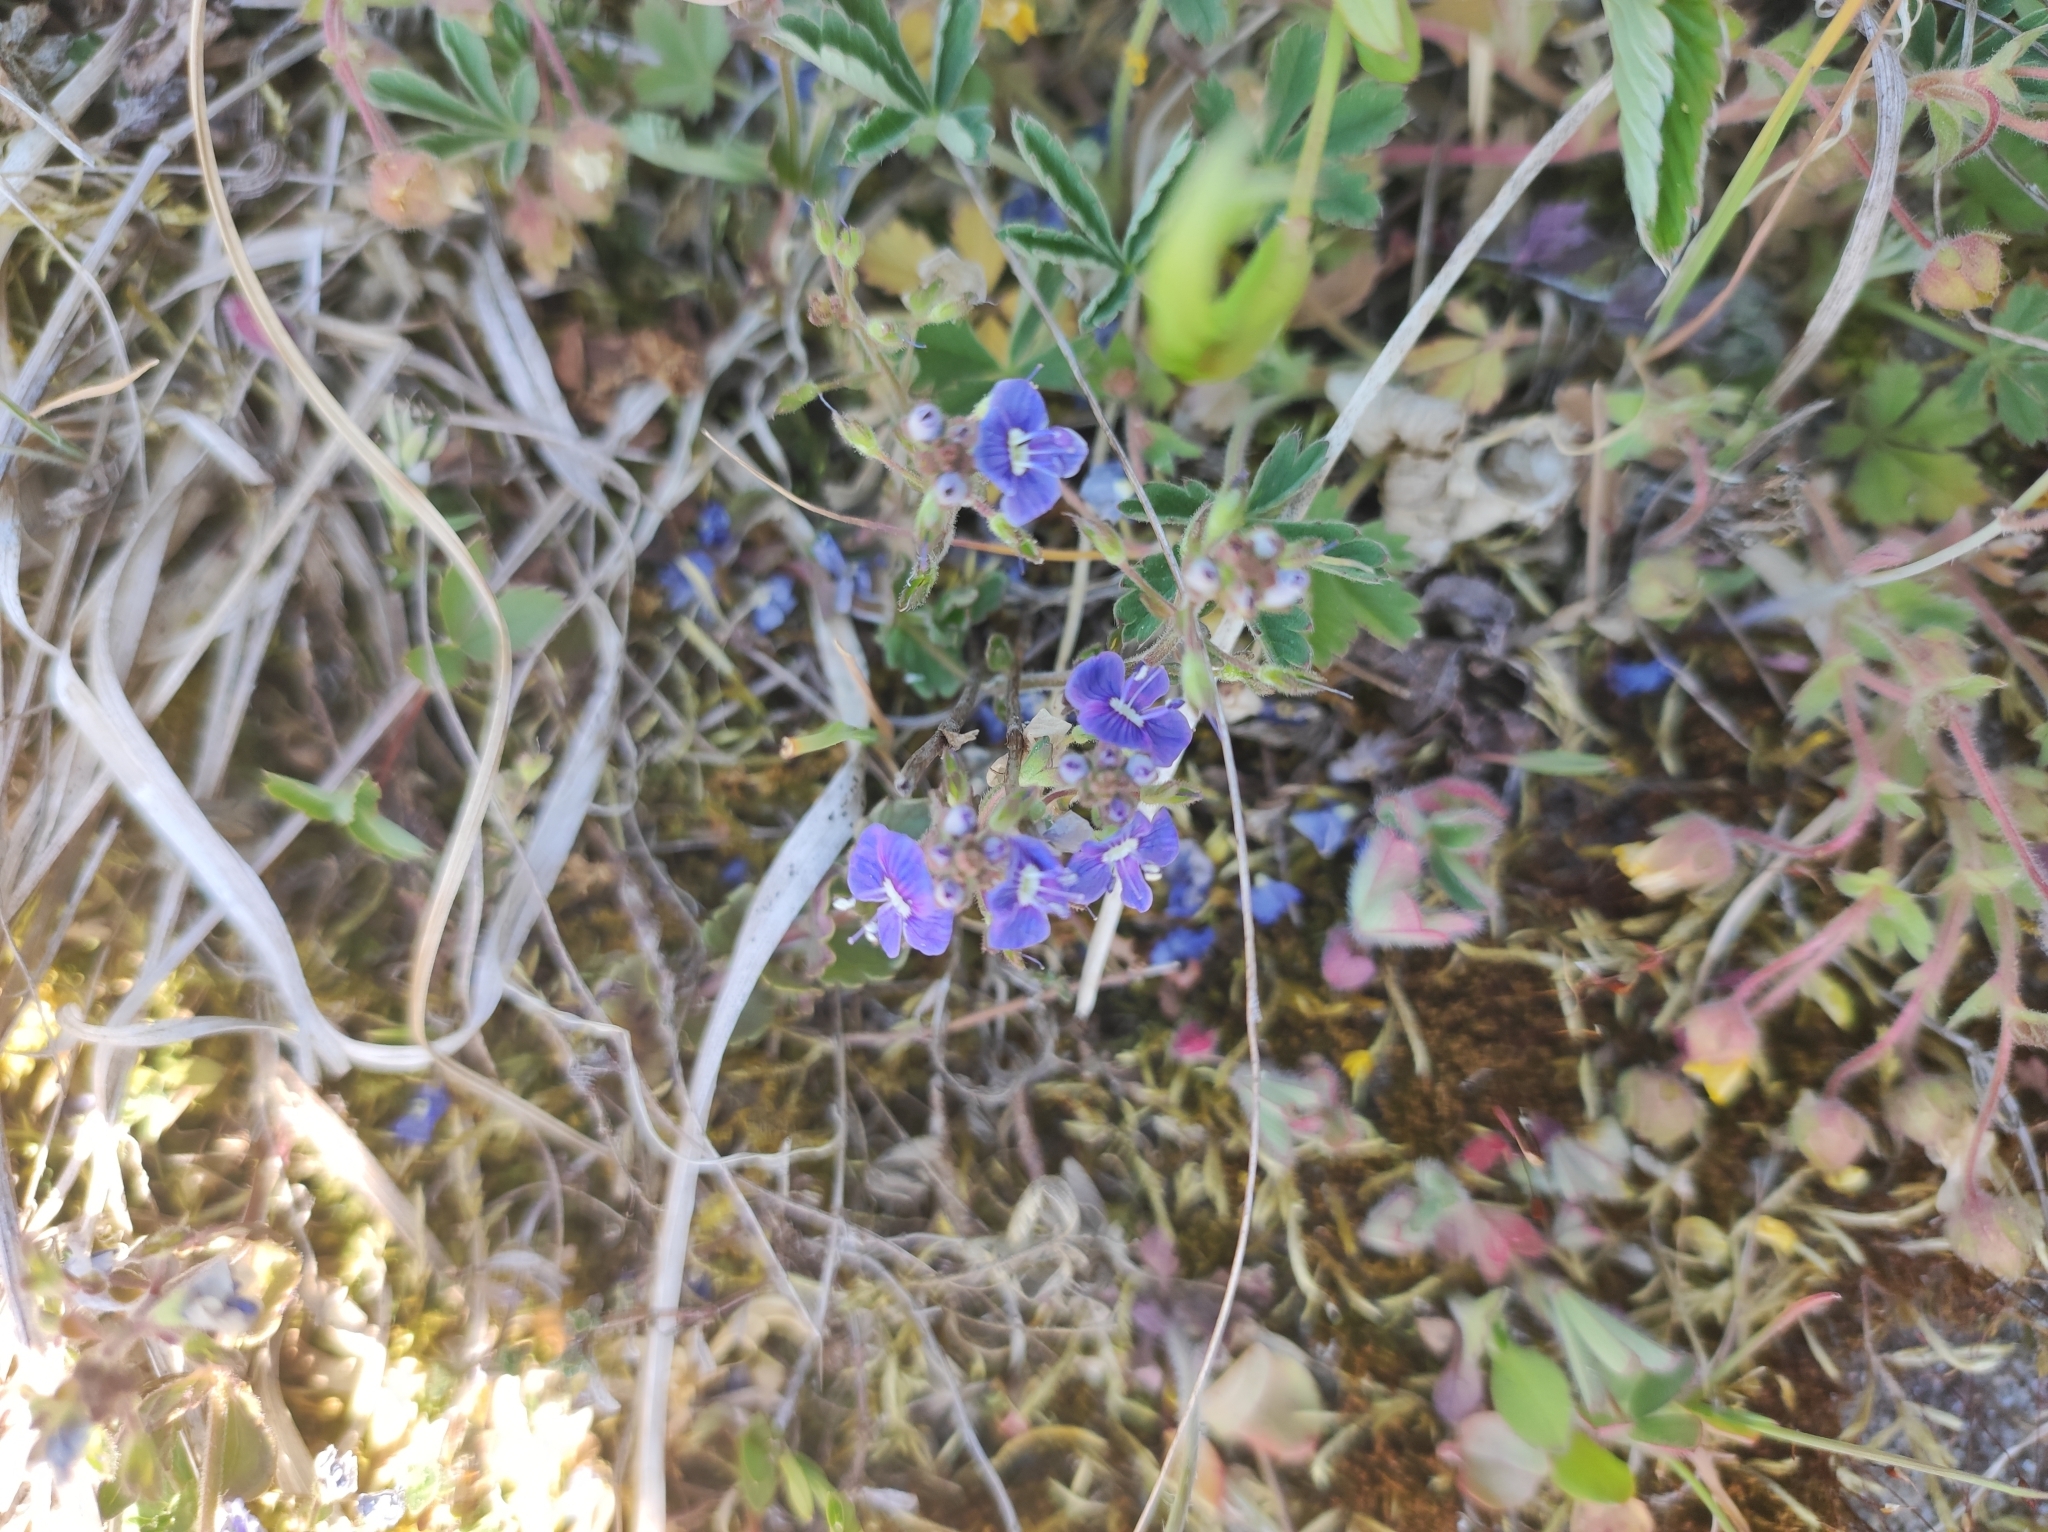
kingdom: Plantae
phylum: Tracheophyta
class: Magnoliopsida
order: Lamiales
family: Plantaginaceae
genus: Veronica
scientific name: Veronica chamaedrys
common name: Germander speedwell
